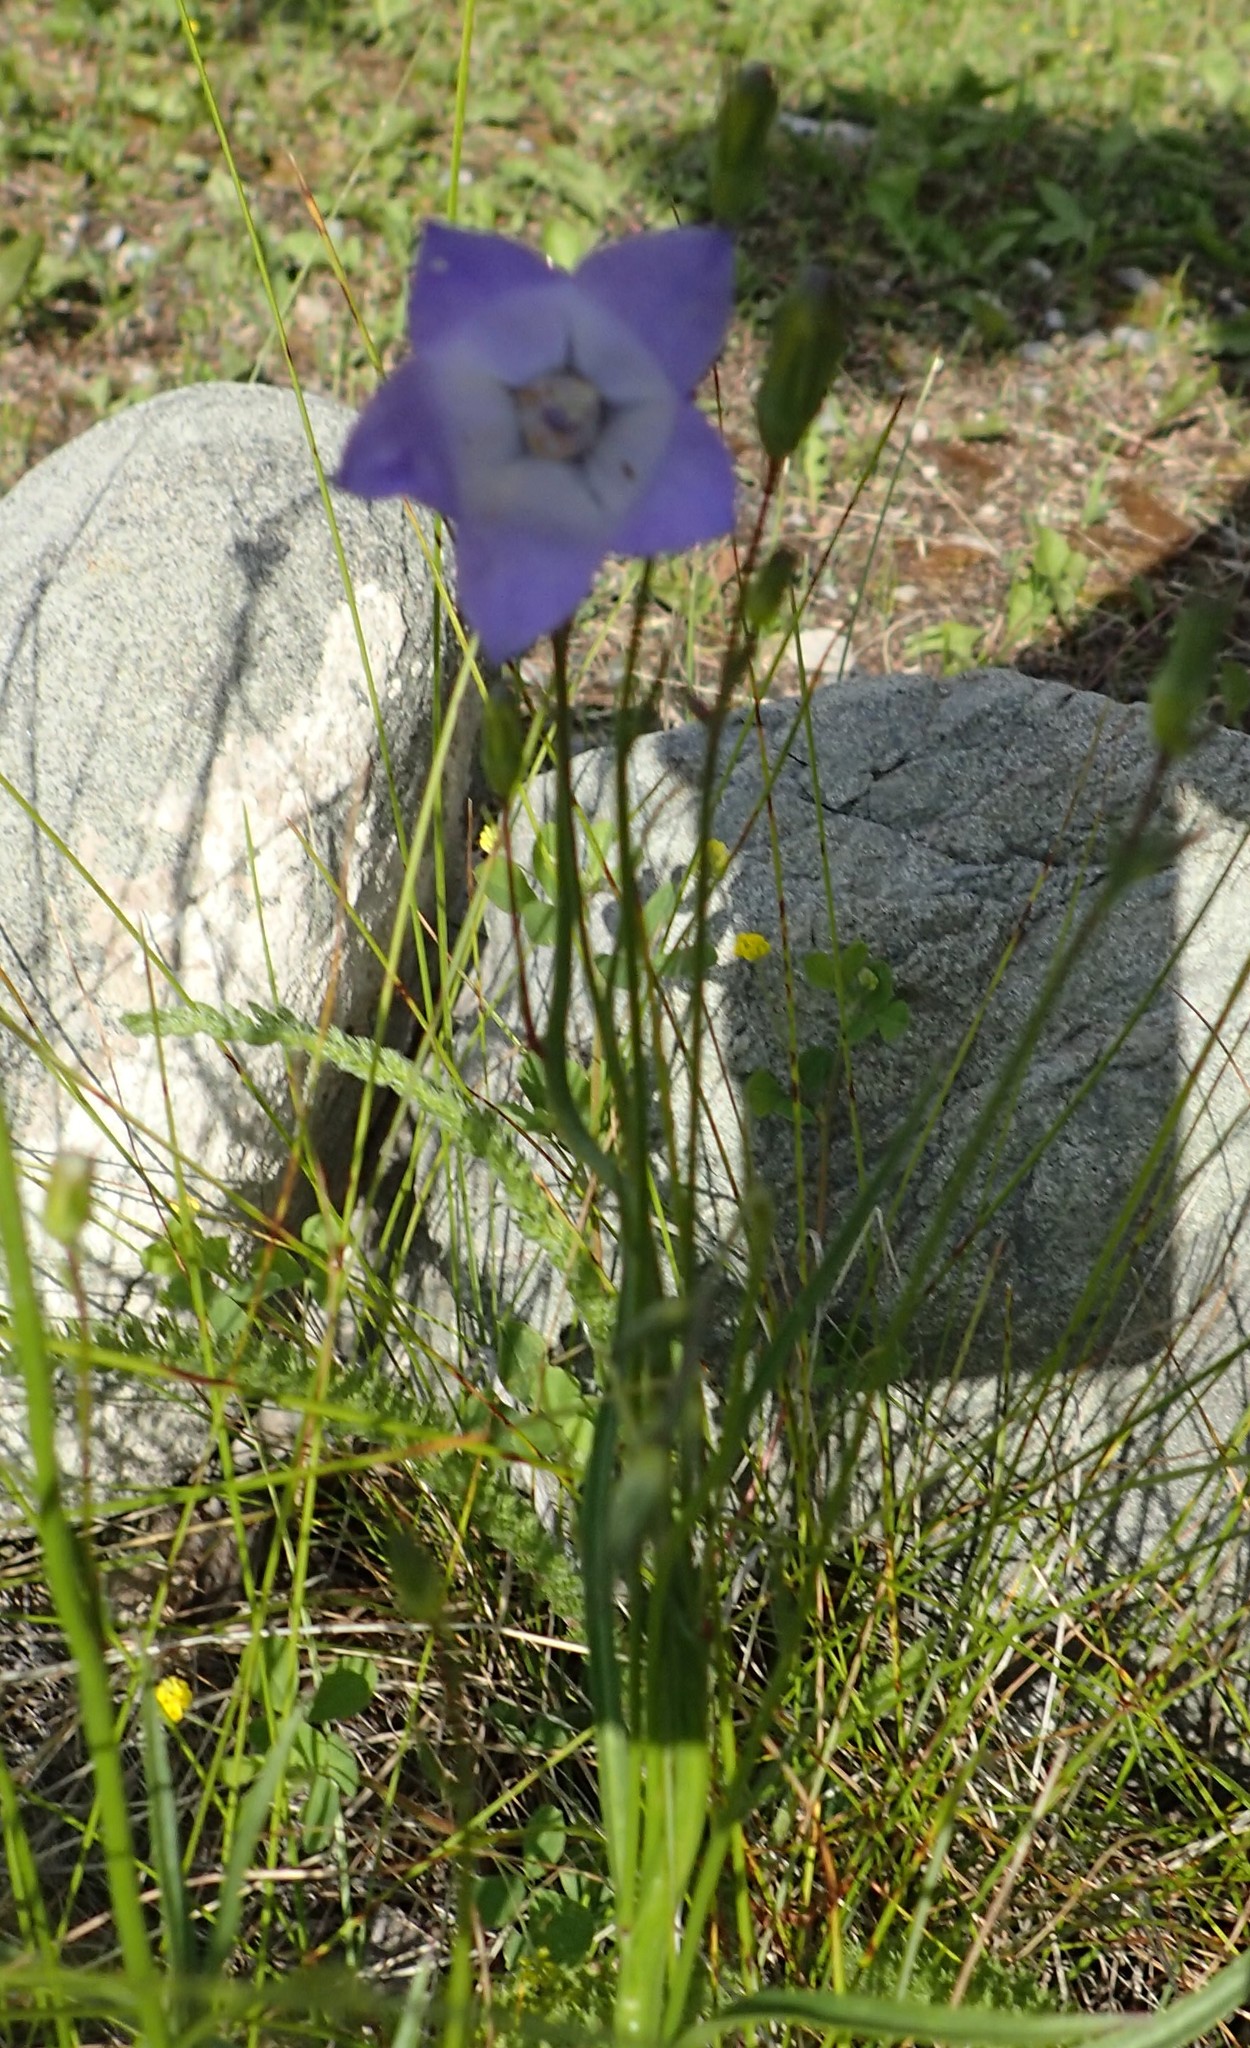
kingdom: Plantae
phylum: Tracheophyta
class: Magnoliopsida
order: Asterales
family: Campanulaceae
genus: Campanula
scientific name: Campanula alaskana
